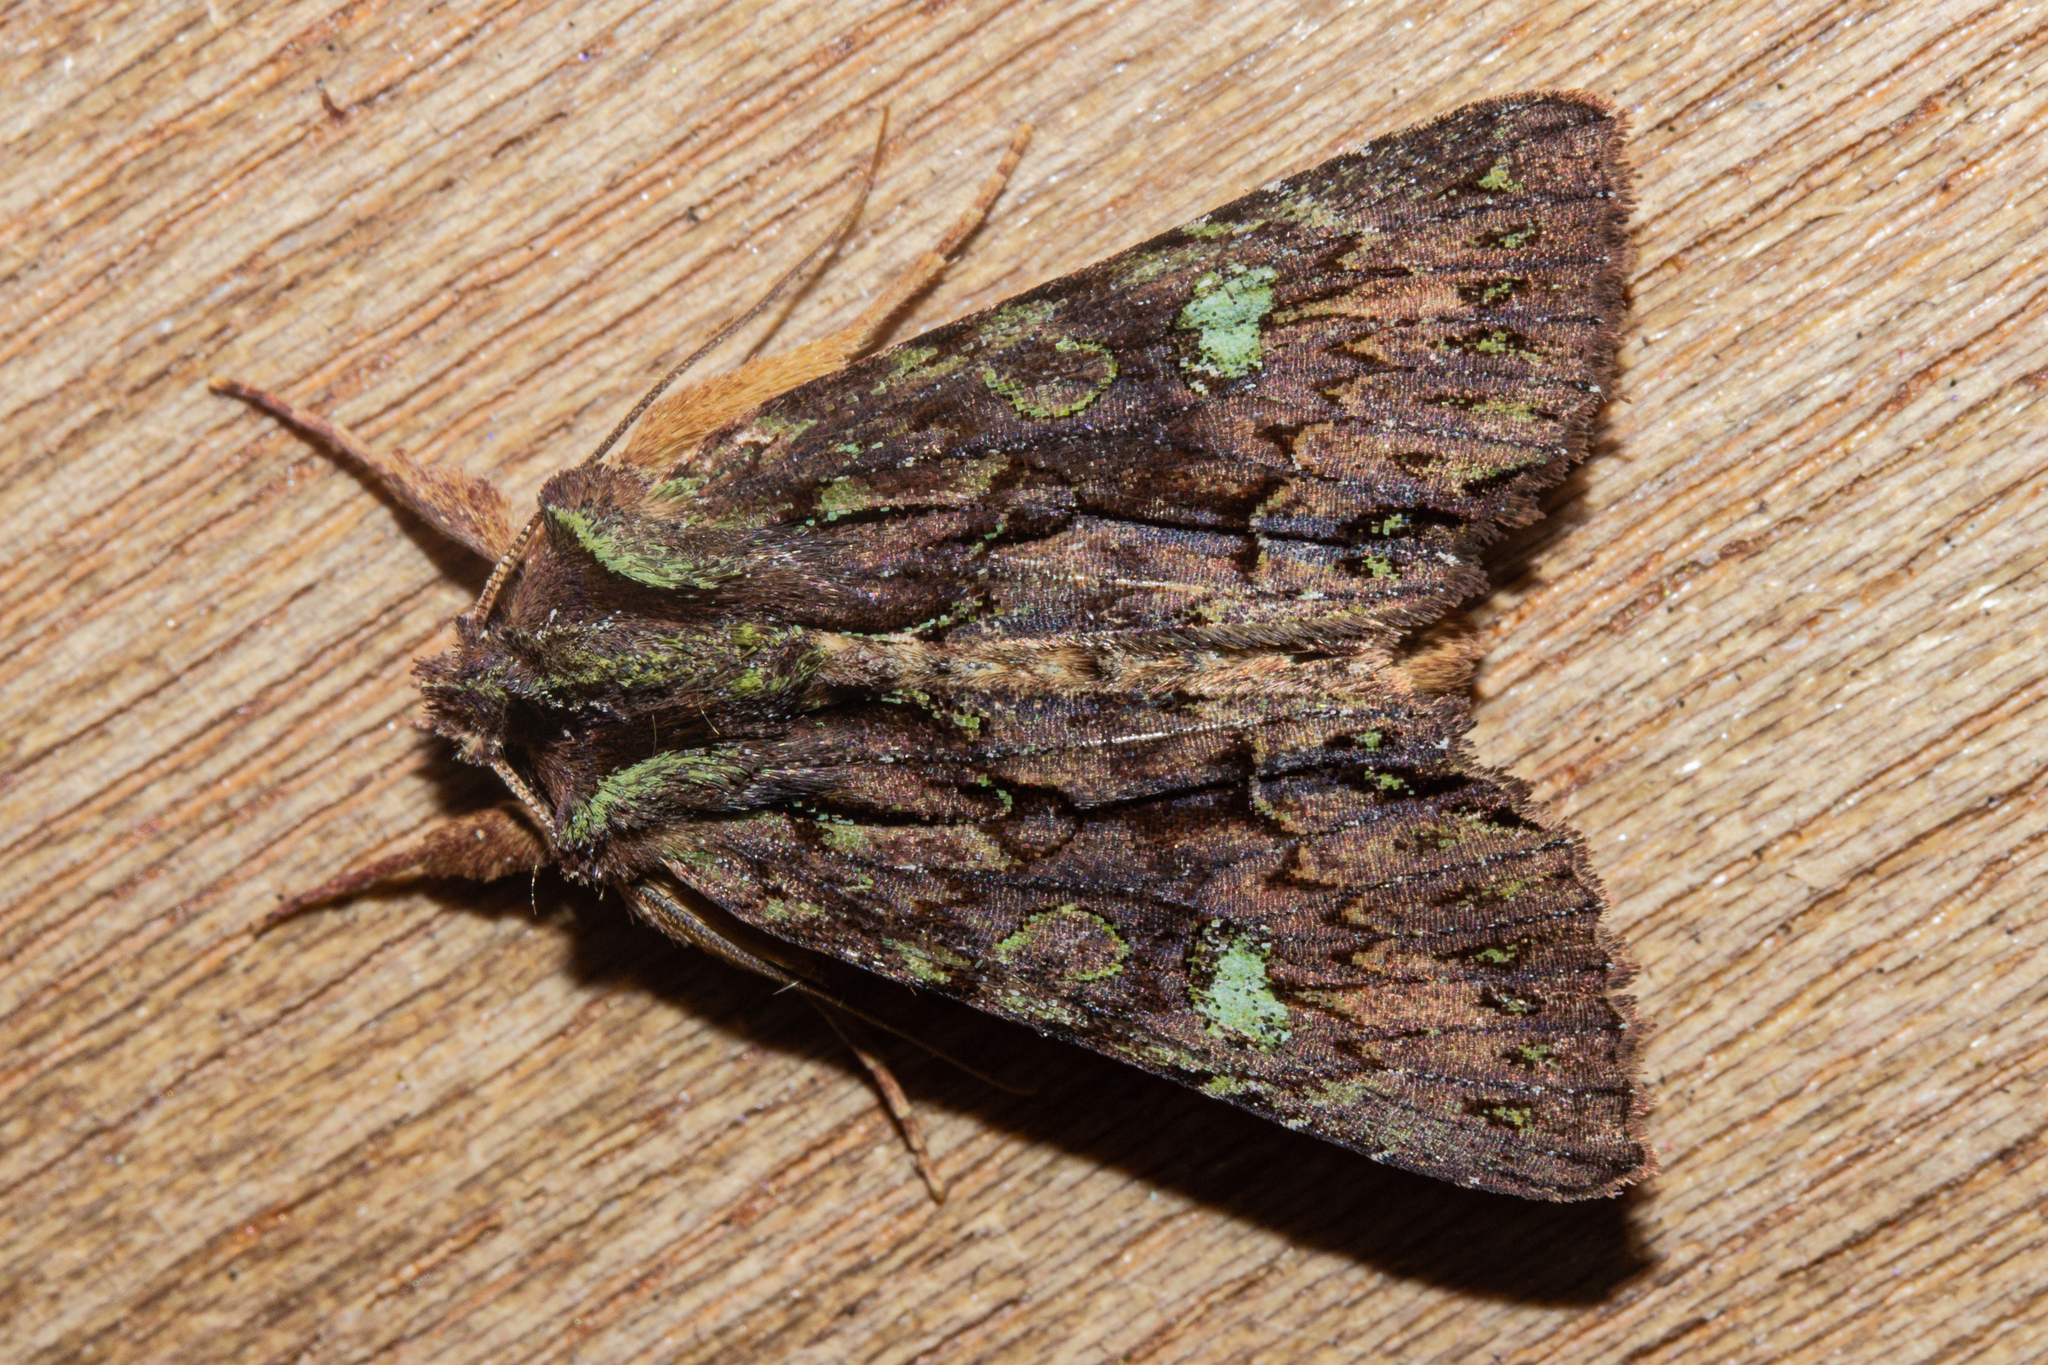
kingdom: Animalia
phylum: Arthropoda
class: Insecta
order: Lepidoptera
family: Noctuidae
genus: Meterana
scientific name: Meterana diatmeta
